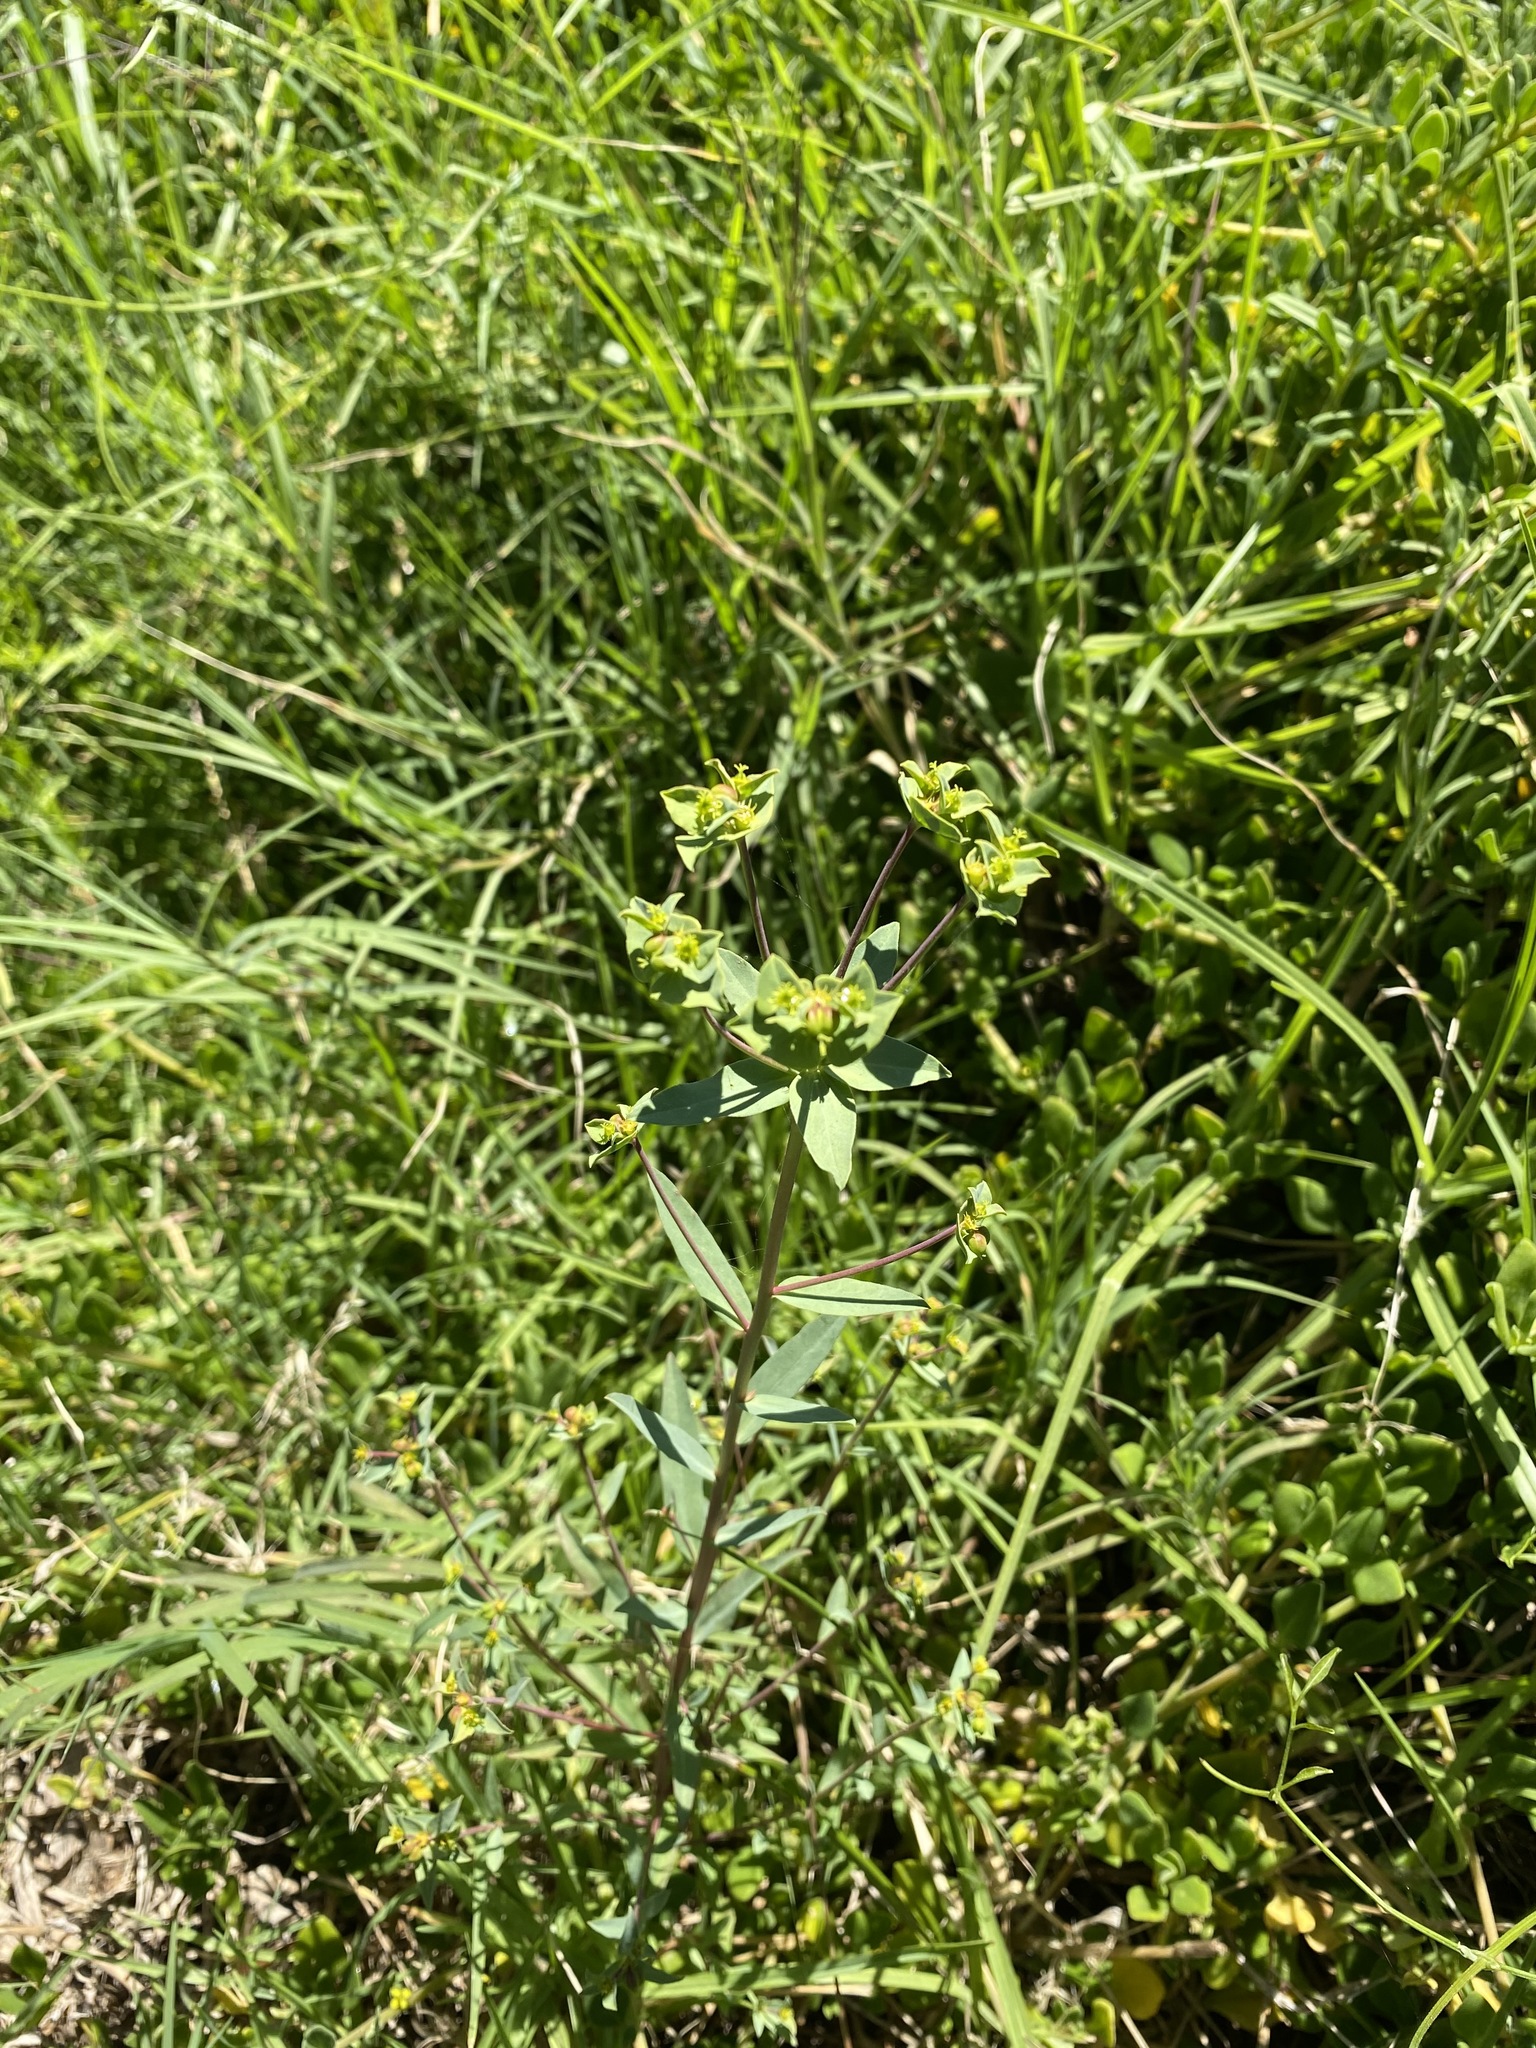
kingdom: Plantae
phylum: Tracheophyta
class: Magnoliopsida
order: Malpighiales
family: Euphorbiaceae
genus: Euphorbia
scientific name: Euphorbia terracina
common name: Geraldton carnation weed
